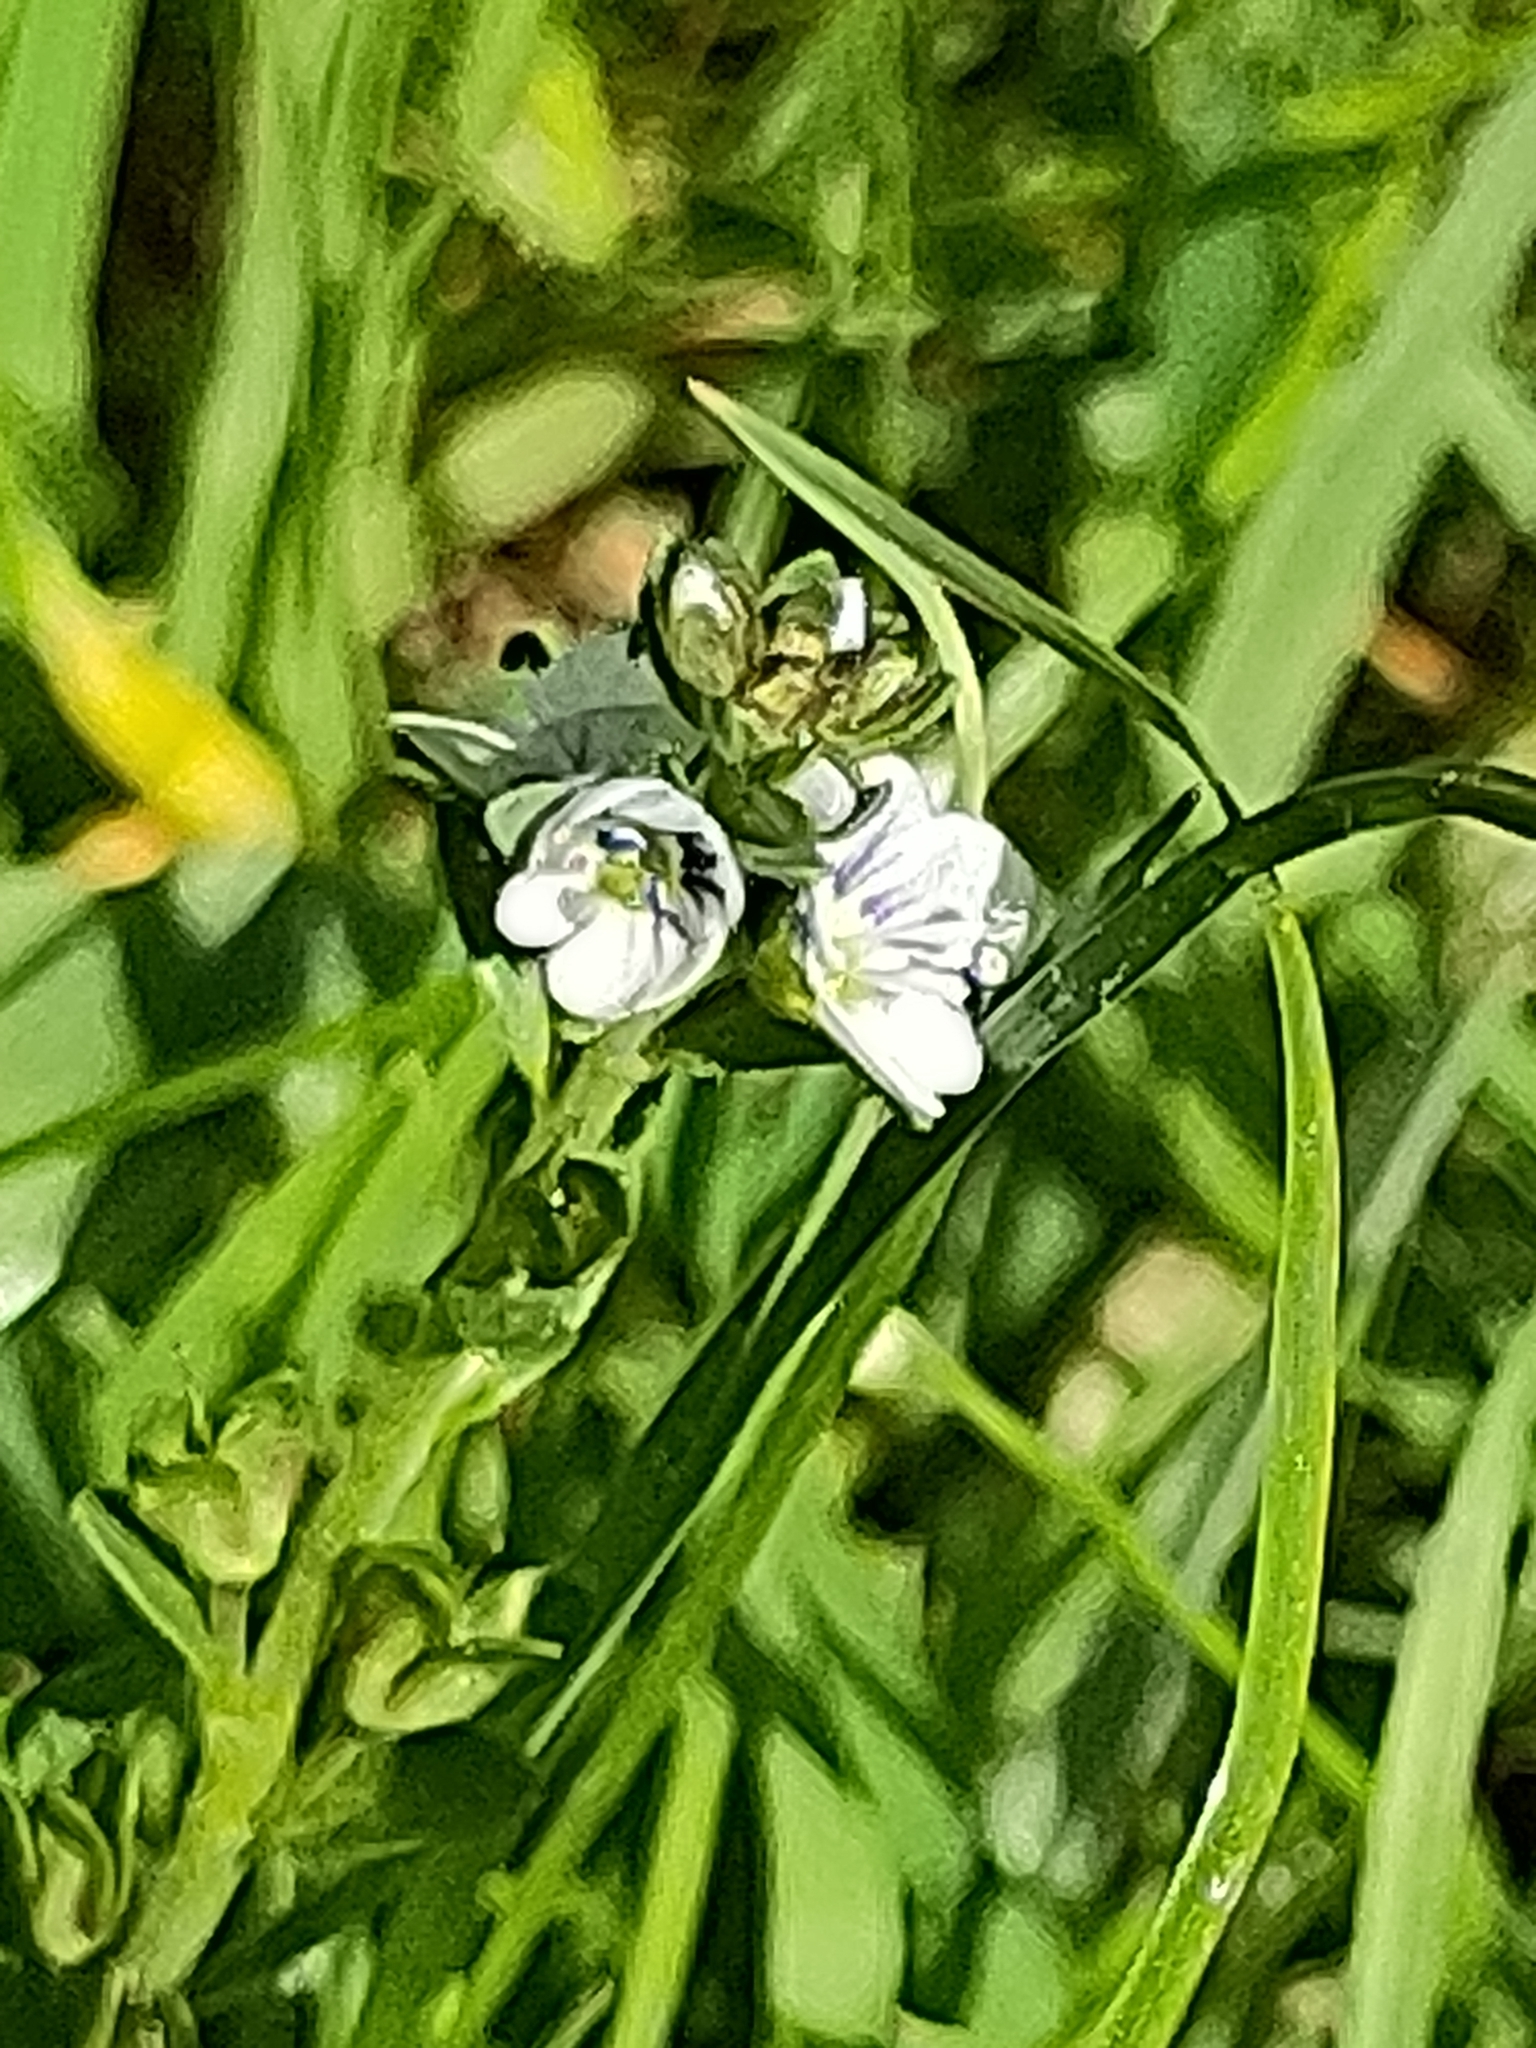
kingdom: Plantae
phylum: Tracheophyta
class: Magnoliopsida
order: Lamiales
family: Plantaginaceae
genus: Veronica
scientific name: Veronica serpyllifolia
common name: Thyme-leaved speedwell
